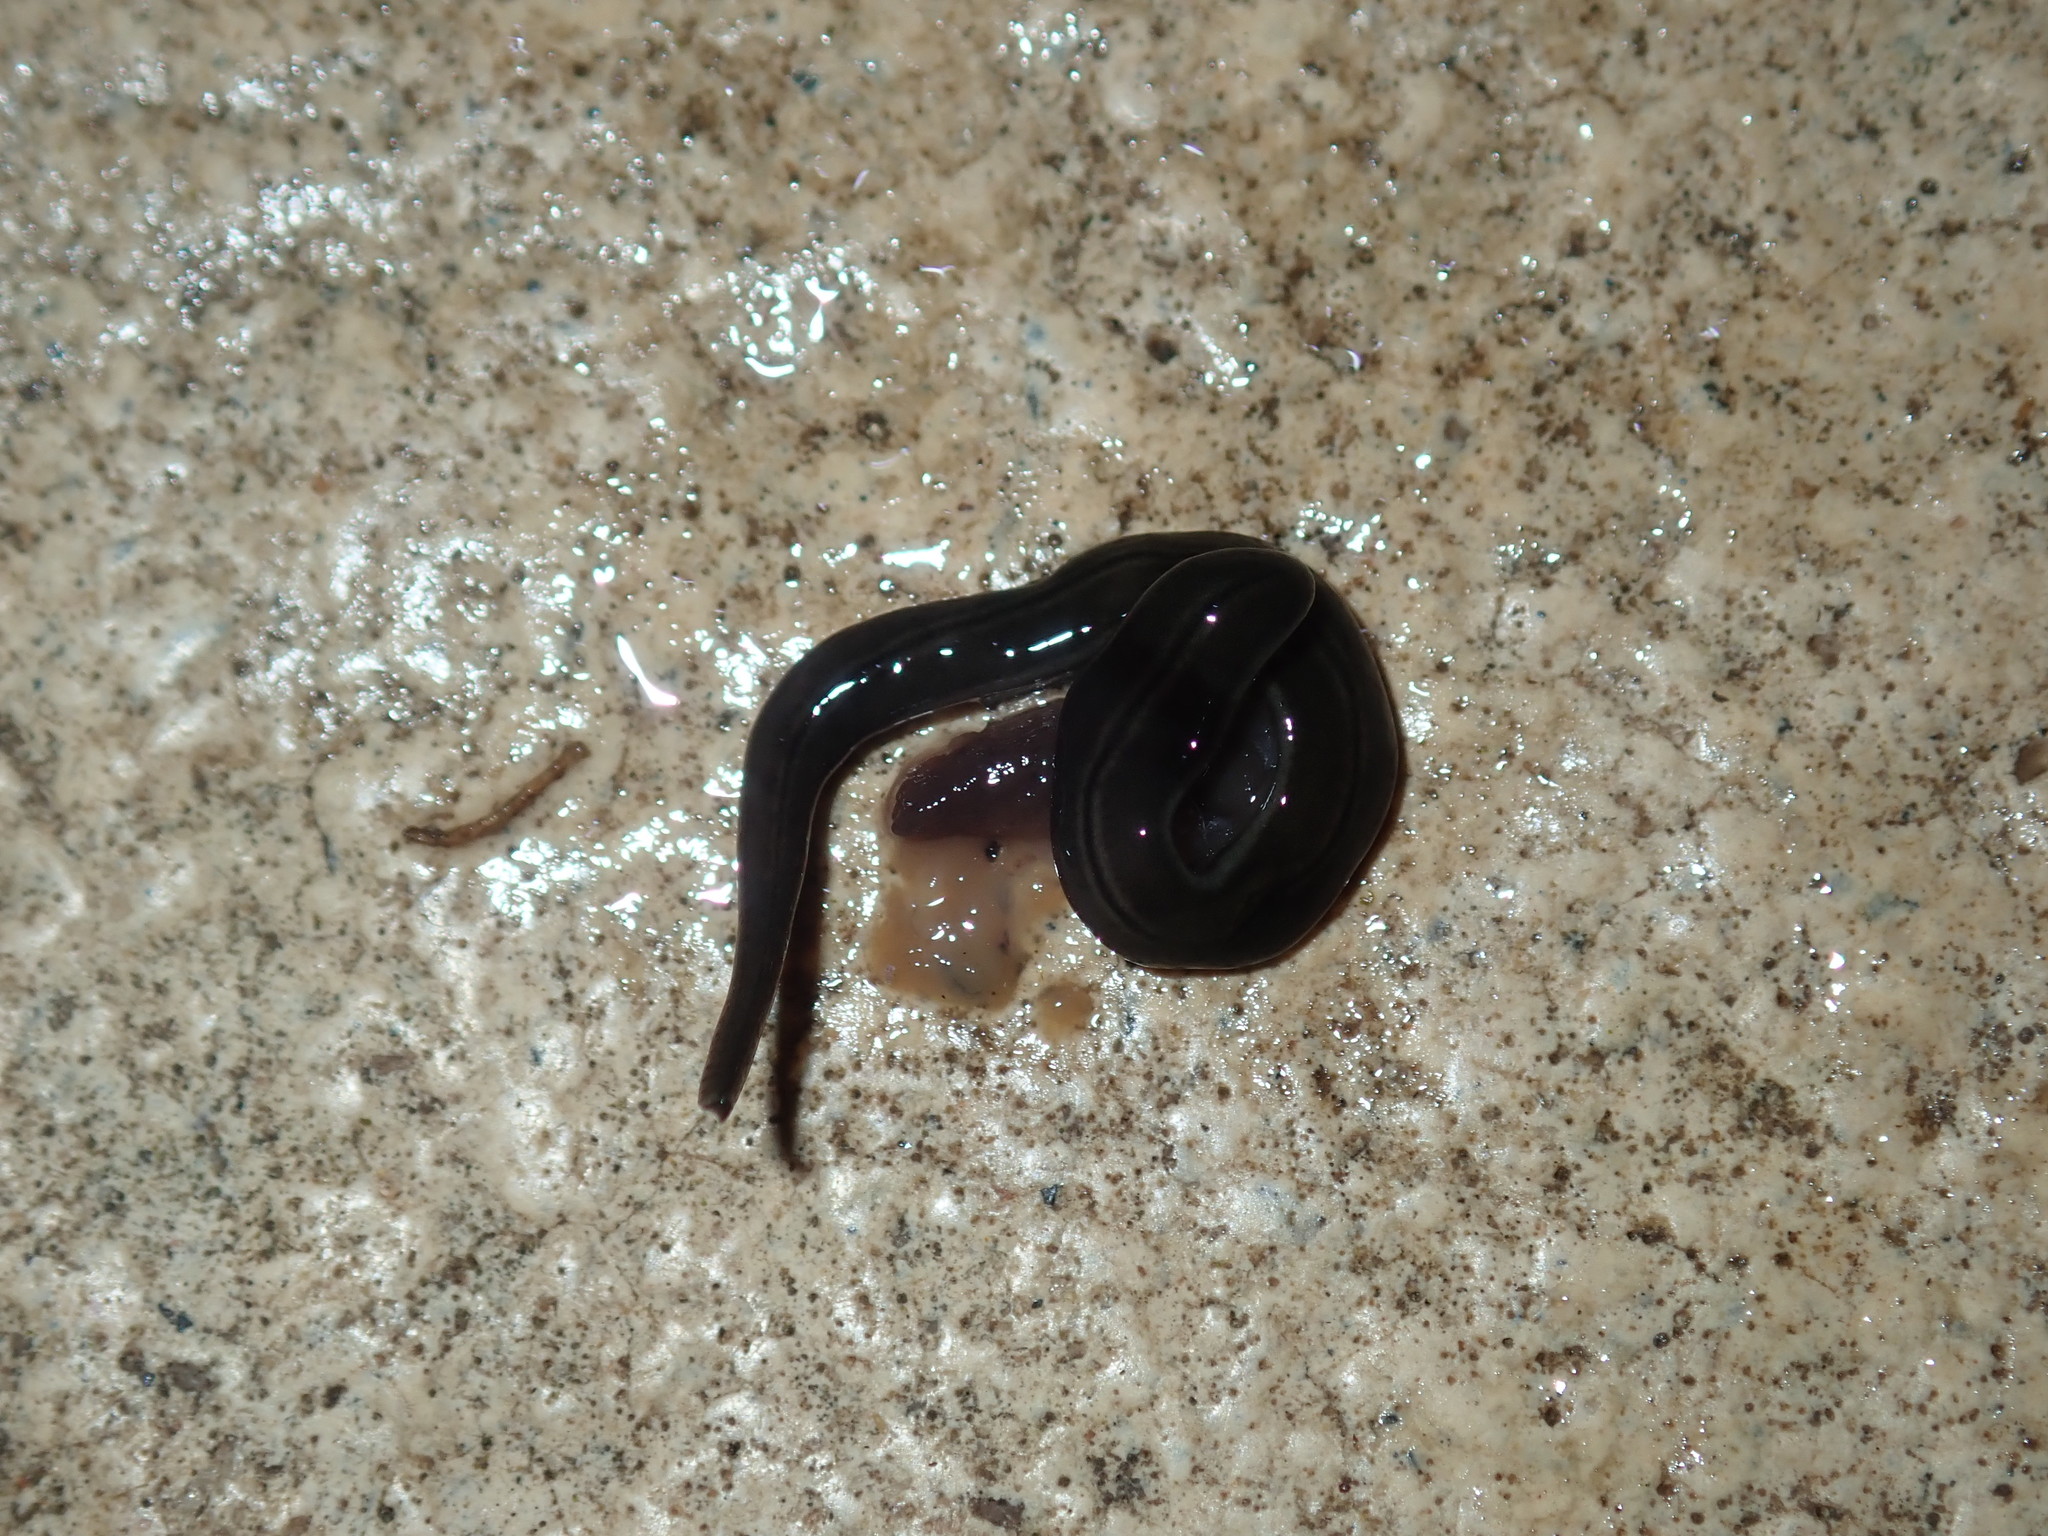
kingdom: Animalia
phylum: Platyhelminthes
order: Tricladida
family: Geoplanidae
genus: Parakontikia
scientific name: Parakontikia ventrolineata
